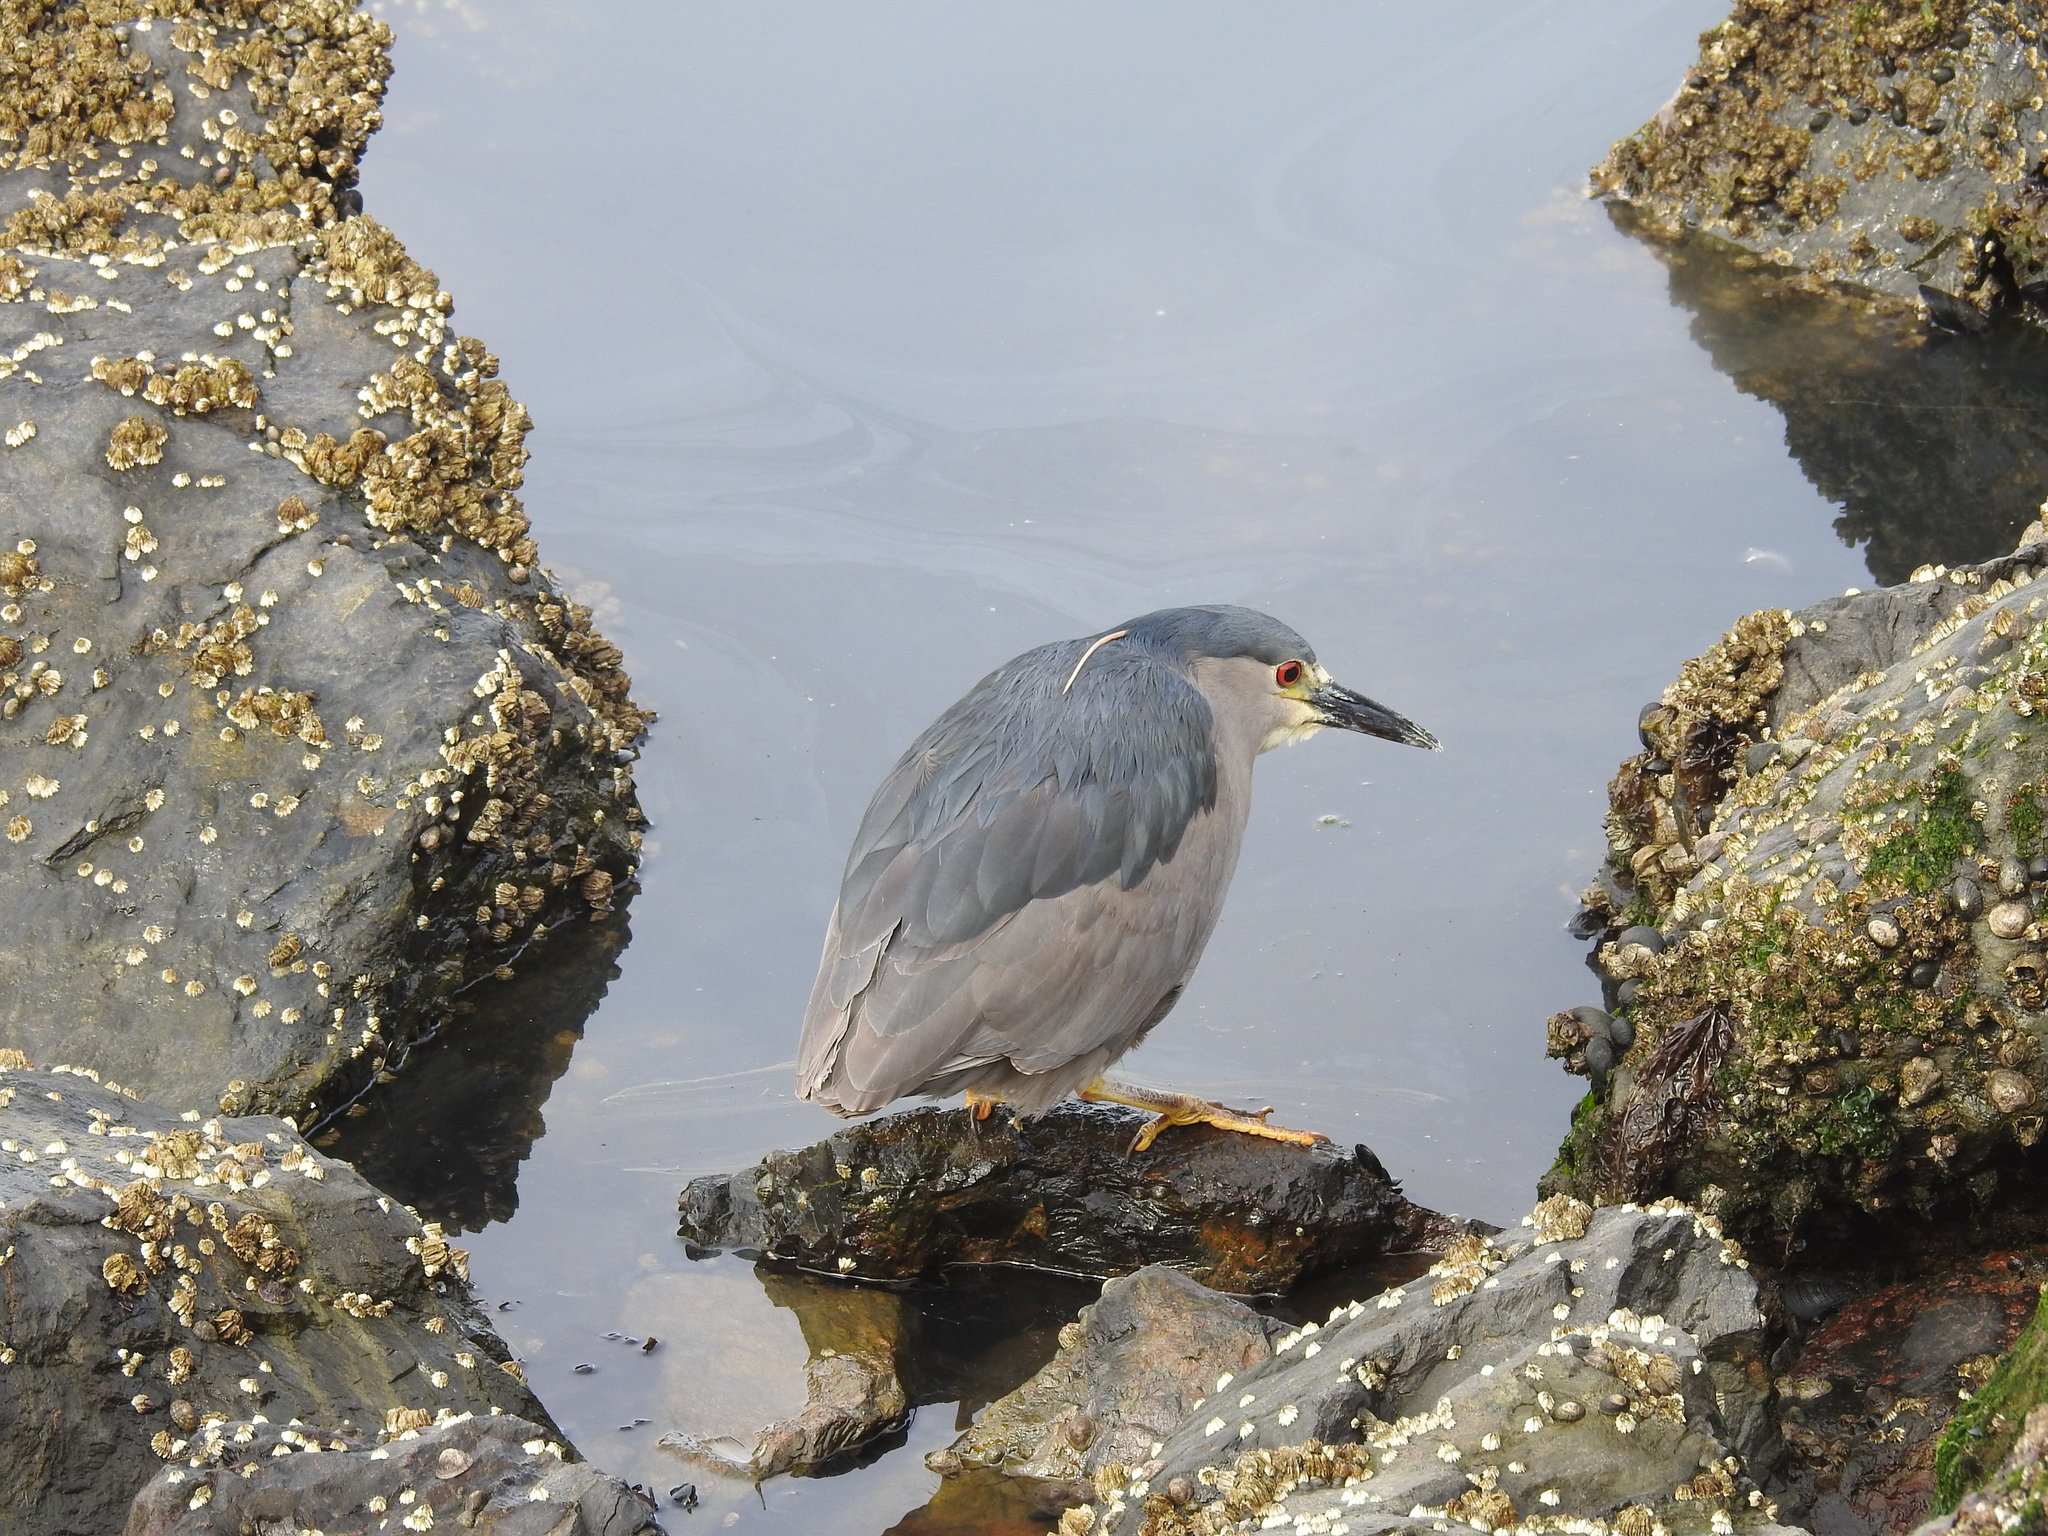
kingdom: Animalia
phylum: Chordata
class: Aves
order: Pelecaniformes
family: Ardeidae
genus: Nycticorax
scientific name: Nycticorax nycticorax
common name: Black-crowned night heron
